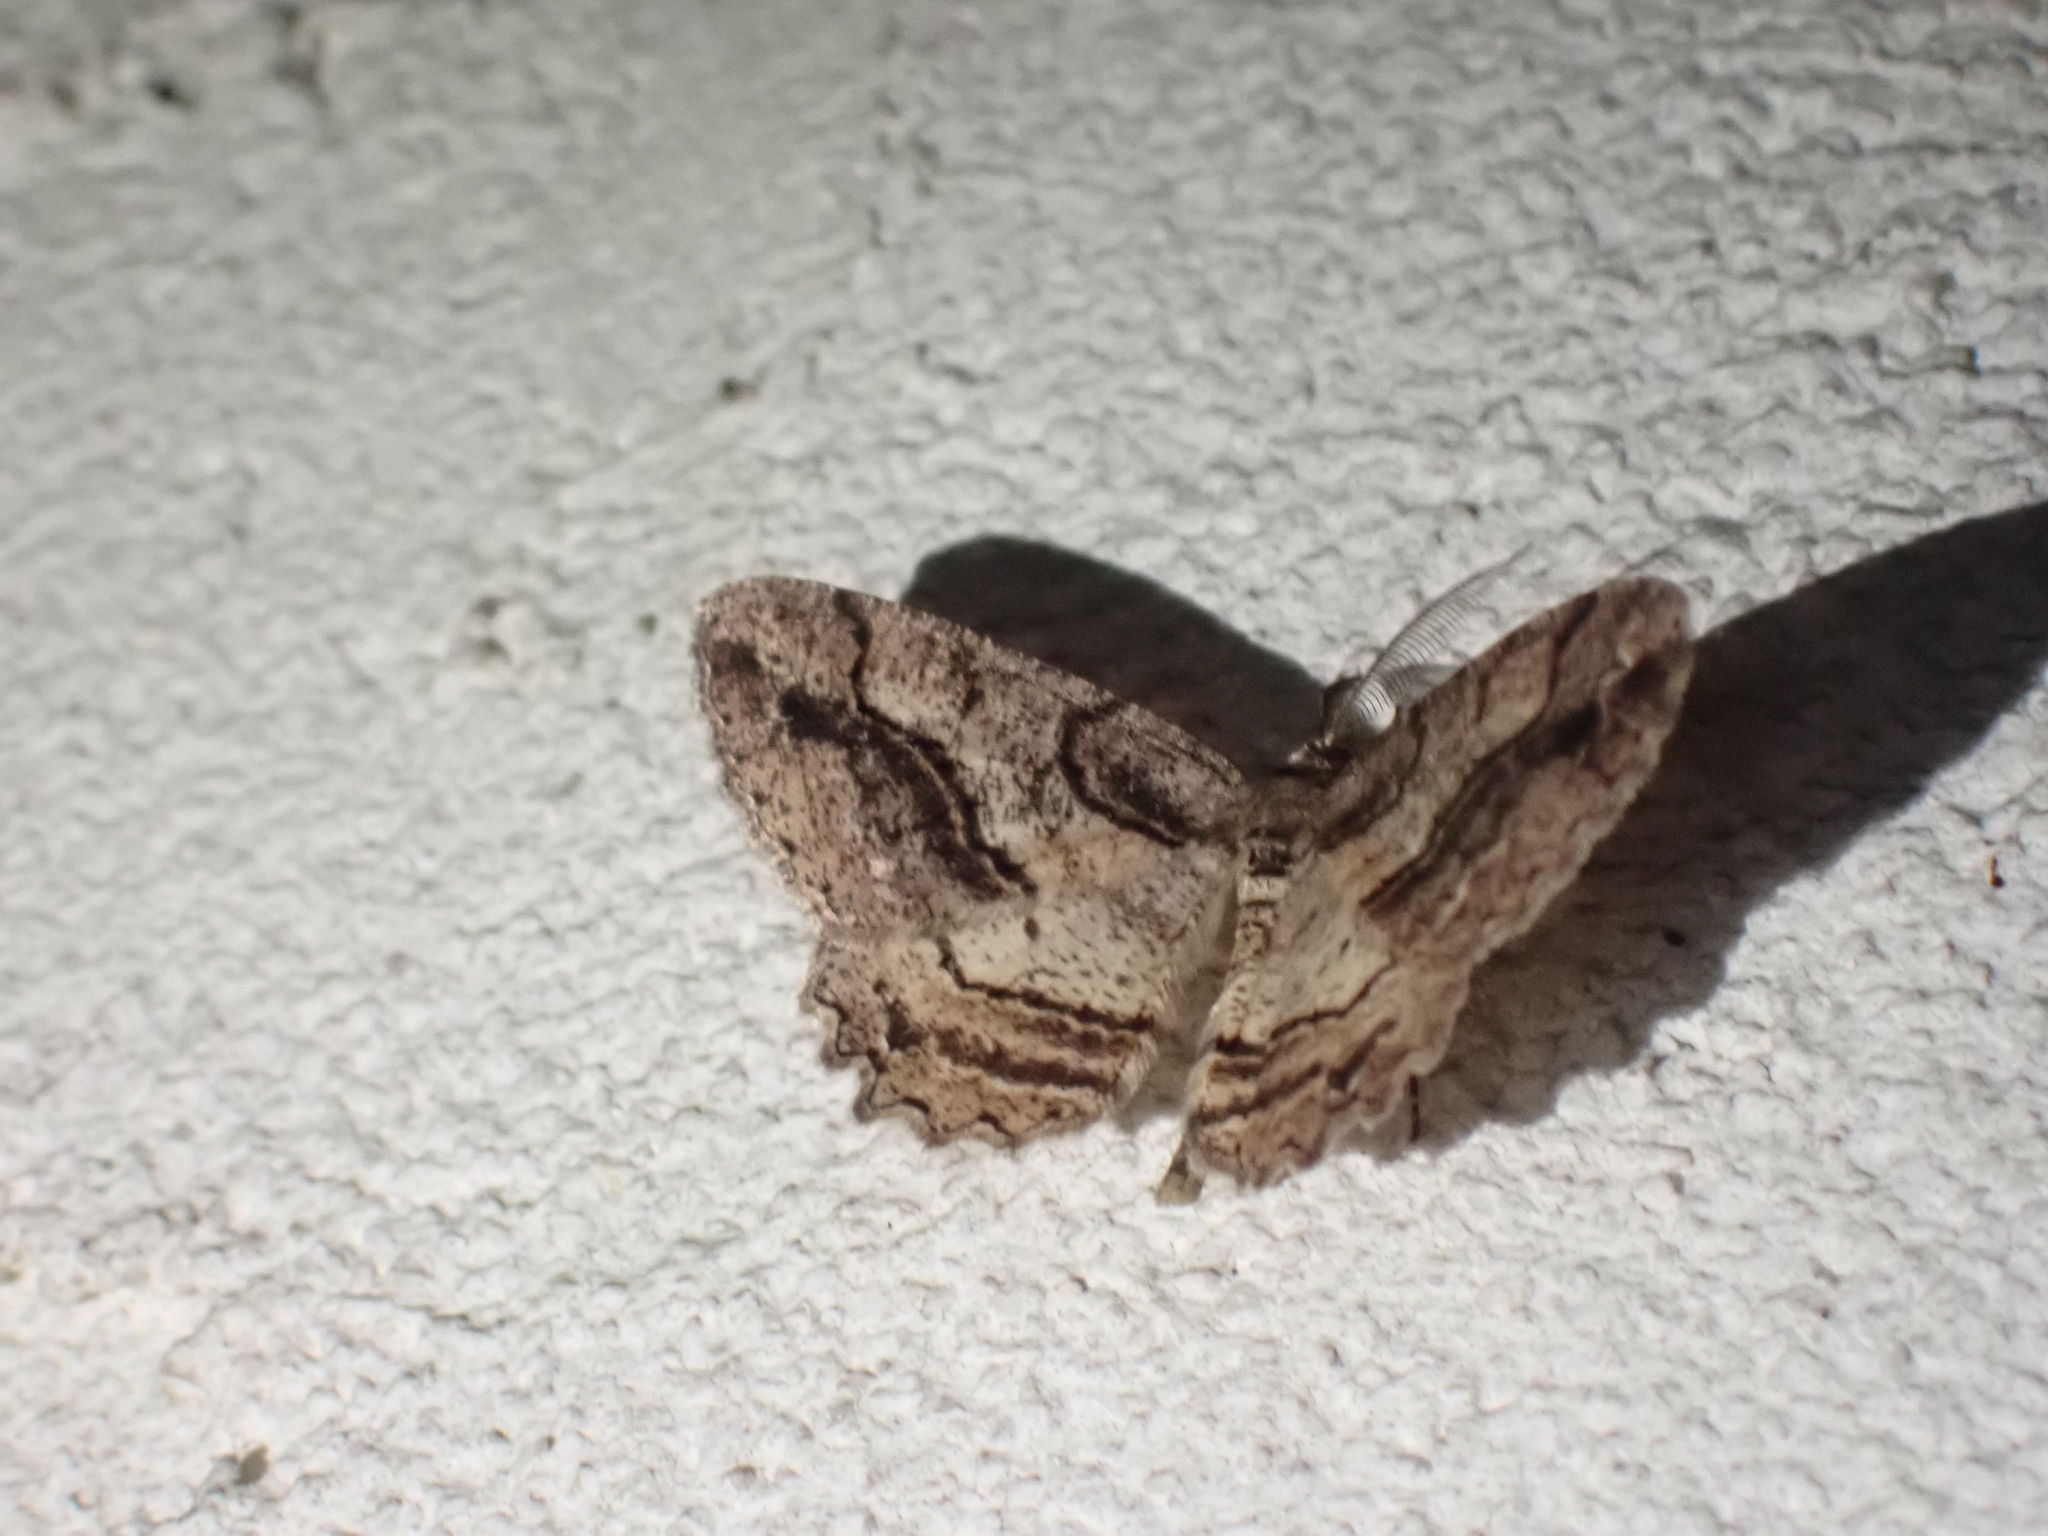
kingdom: Animalia
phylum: Arthropoda
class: Insecta
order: Lepidoptera
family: Geometridae
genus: Neoalcis
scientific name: Neoalcis californiaria
